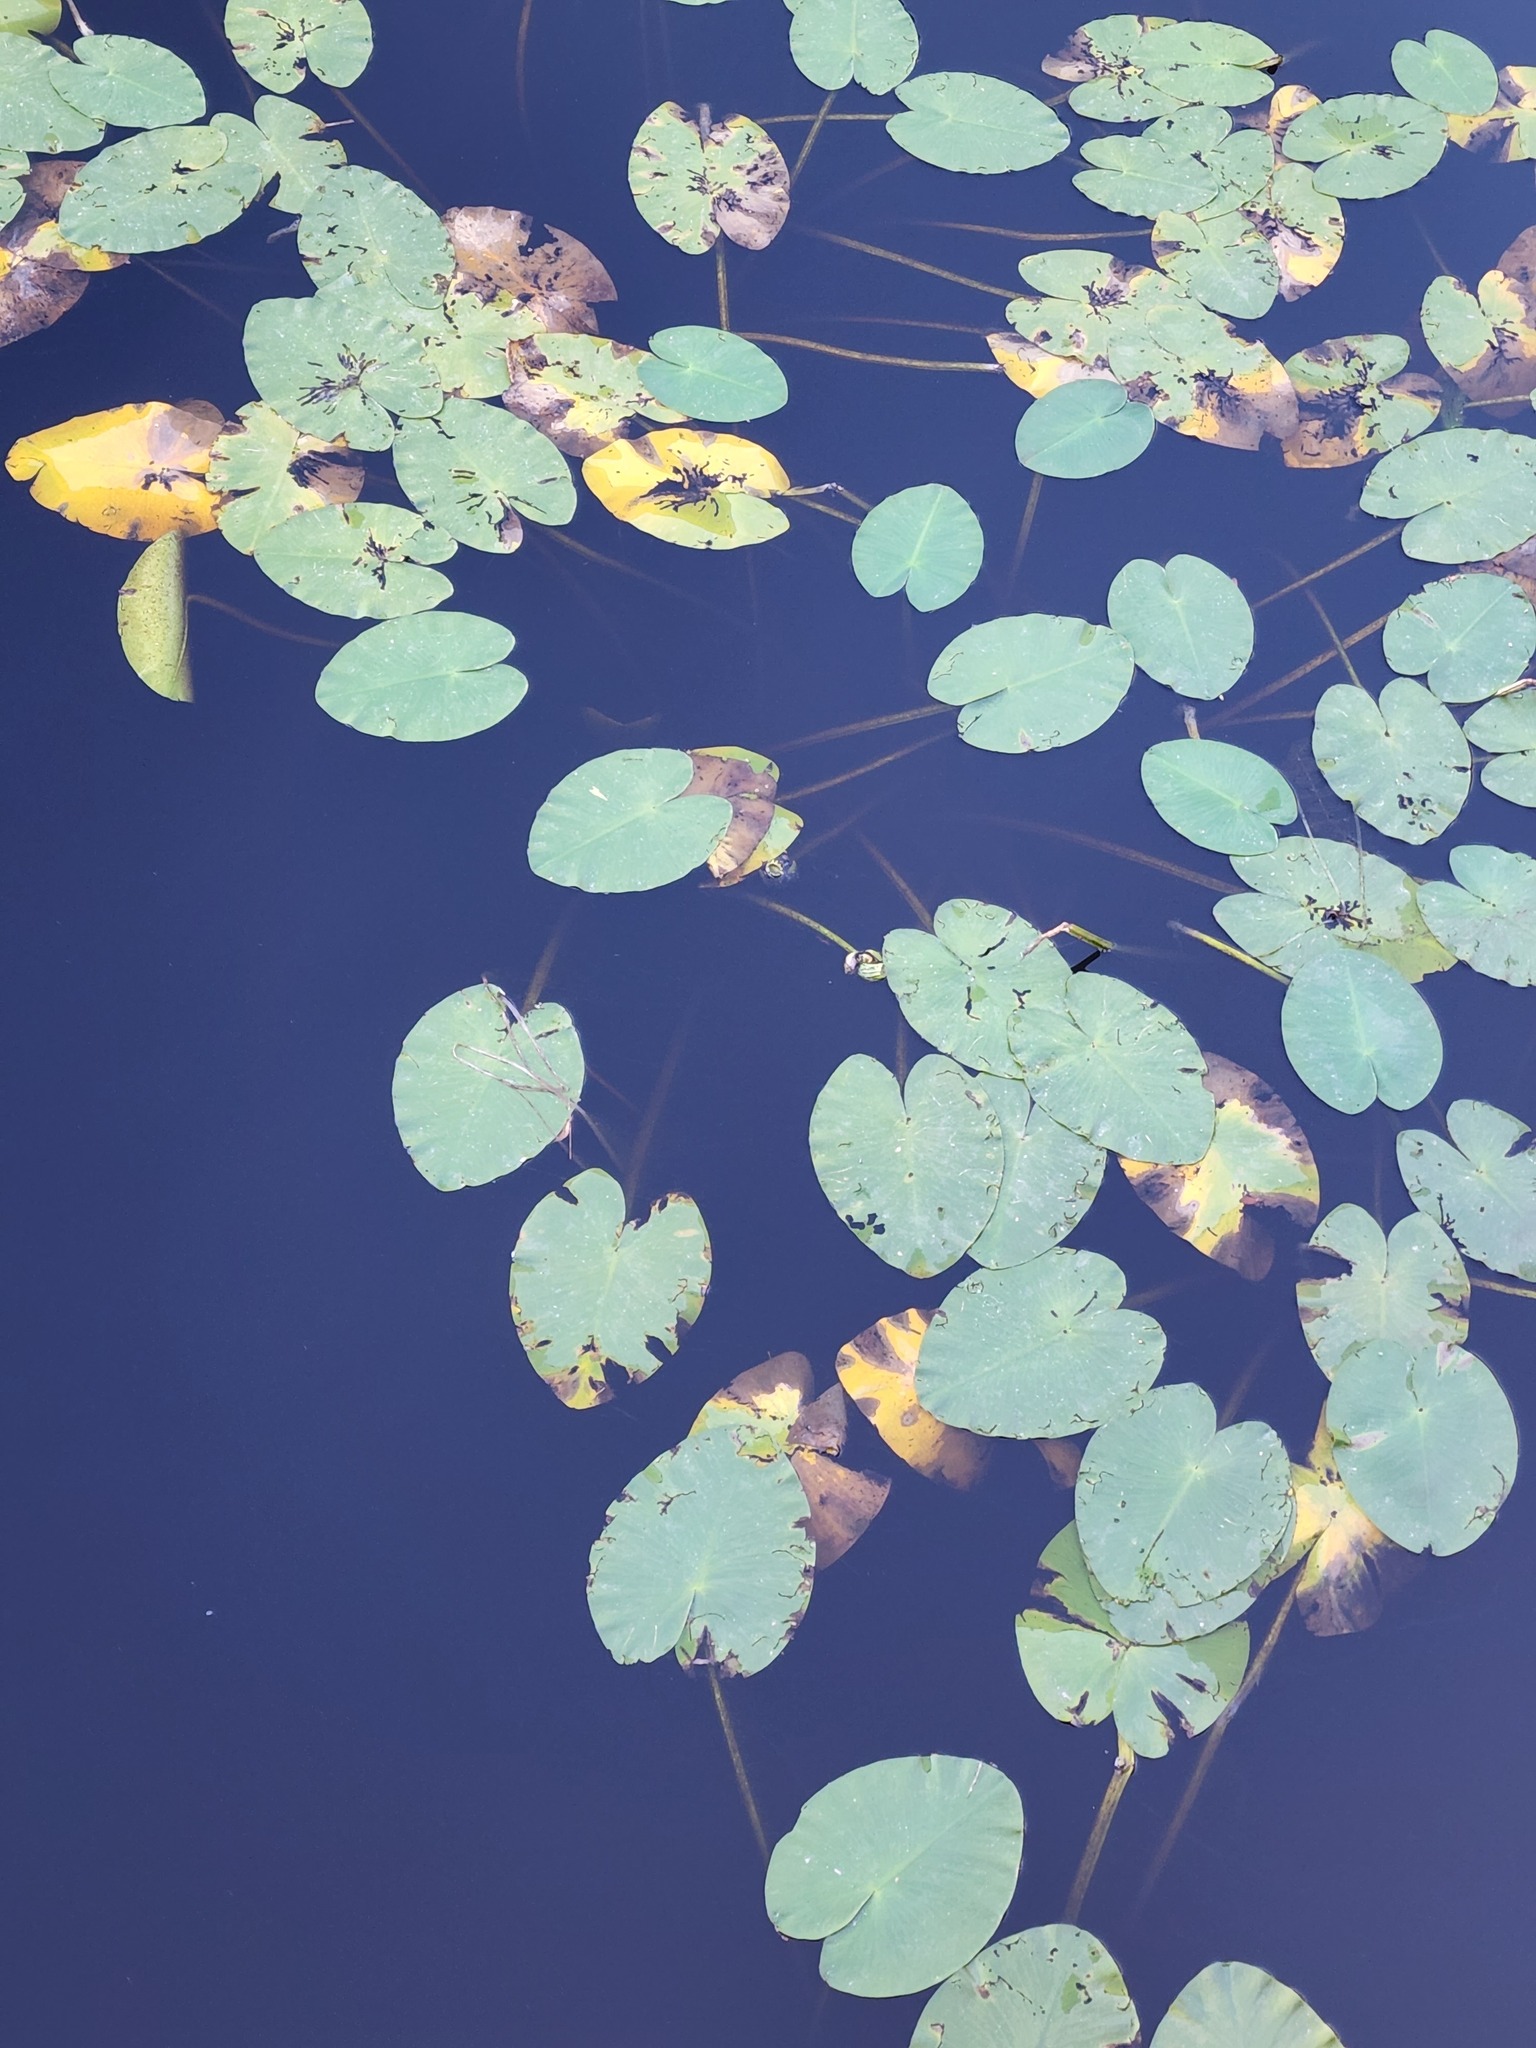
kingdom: Plantae
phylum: Tracheophyta
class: Magnoliopsida
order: Nymphaeales
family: Nymphaeaceae
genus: Nuphar
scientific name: Nuphar variegata
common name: Beaver-root
